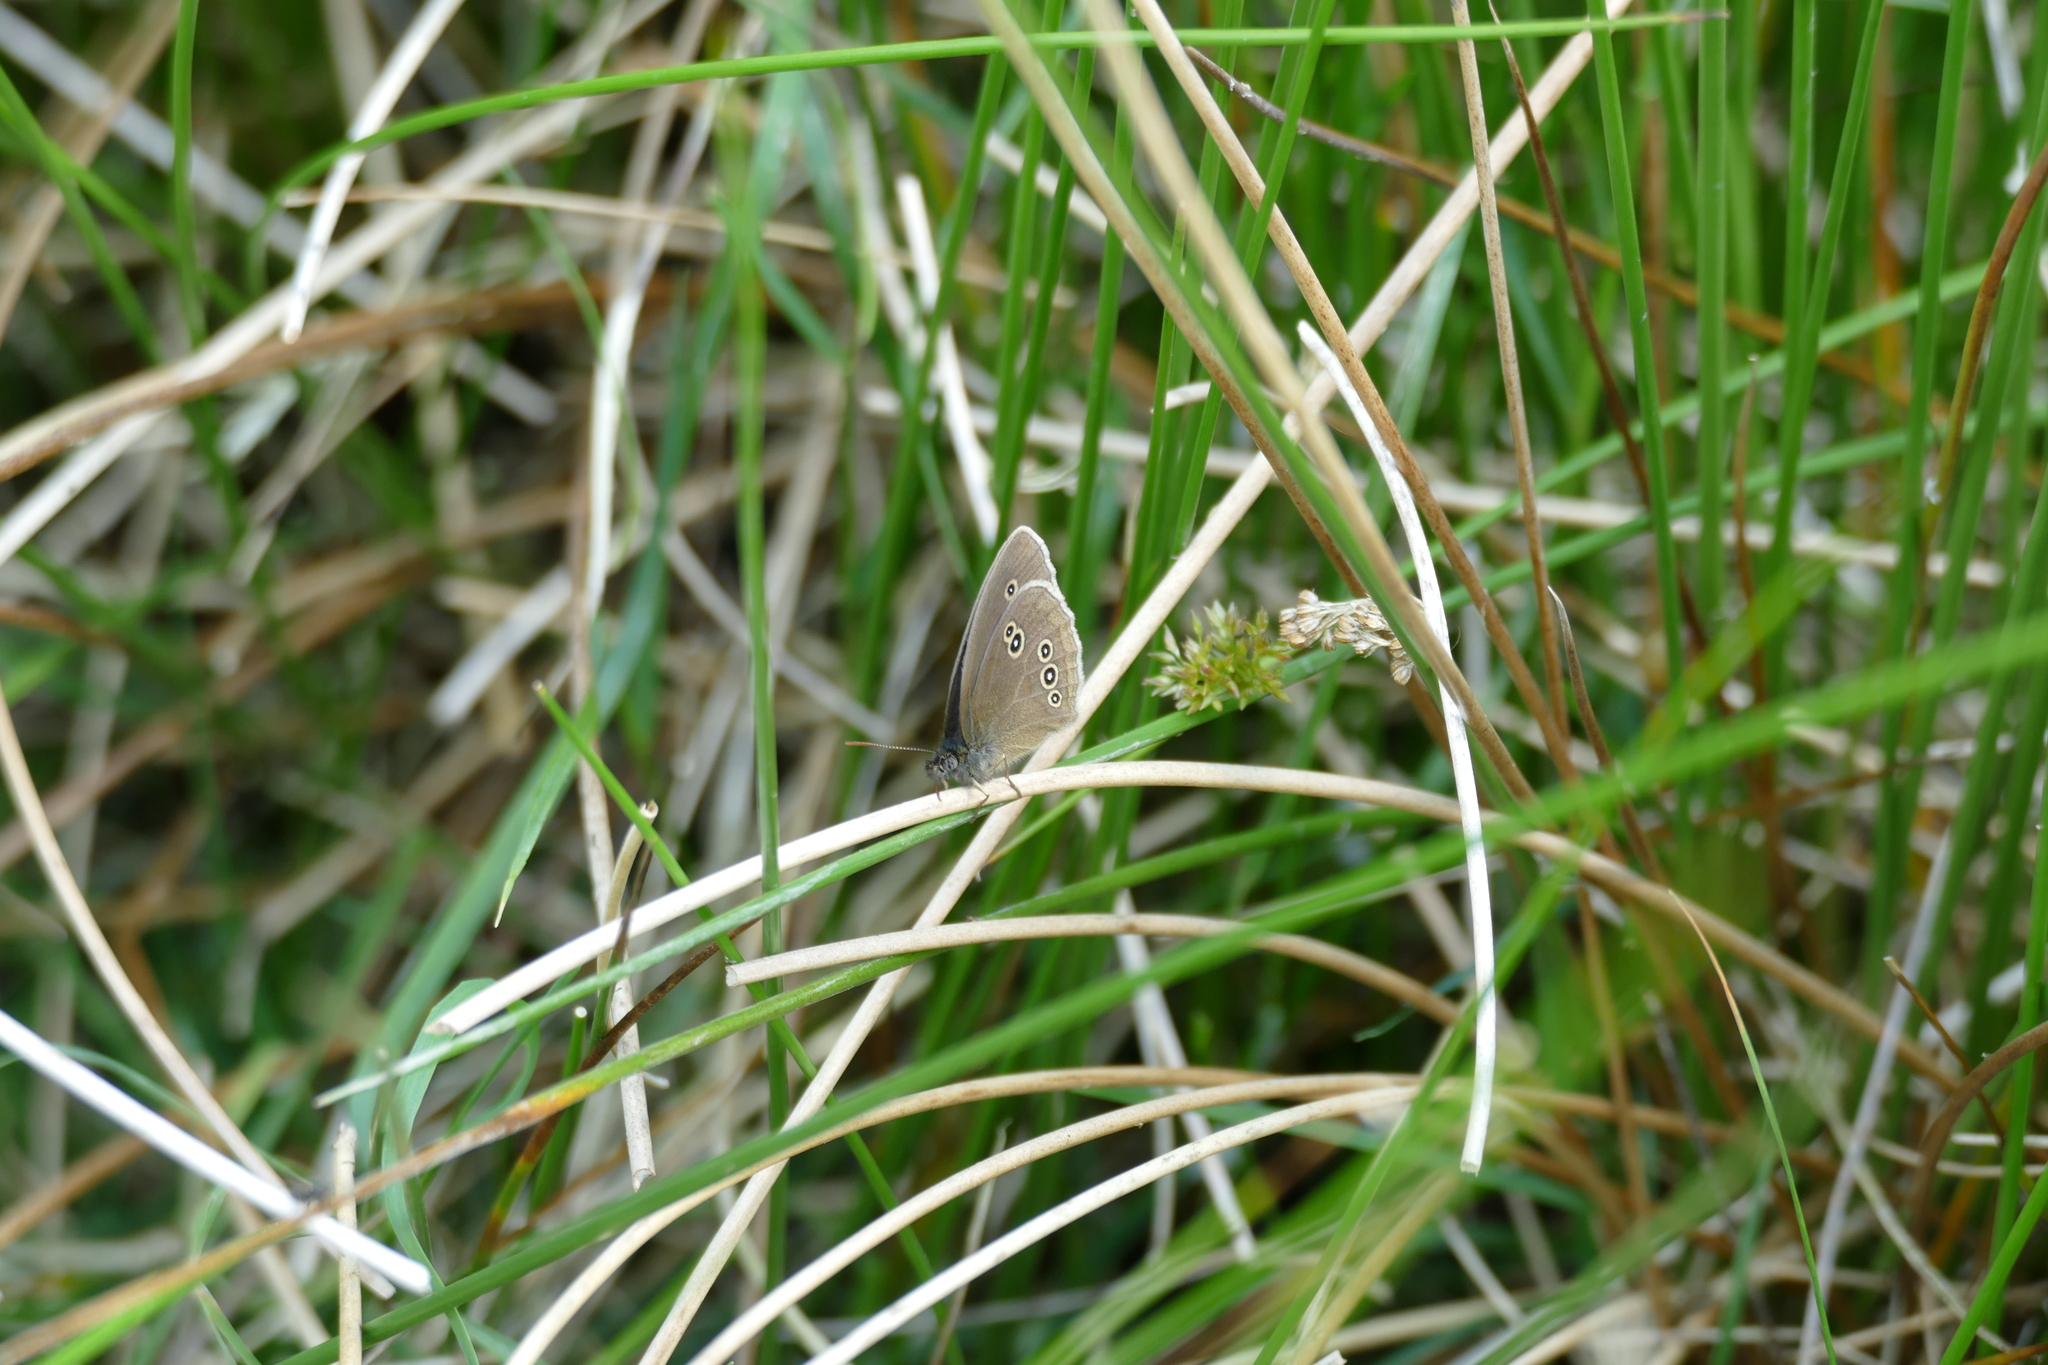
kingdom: Animalia
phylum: Arthropoda
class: Insecta
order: Lepidoptera
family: Nymphalidae
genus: Aphantopus
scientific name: Aphantopus hyperantus
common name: Ringlet
